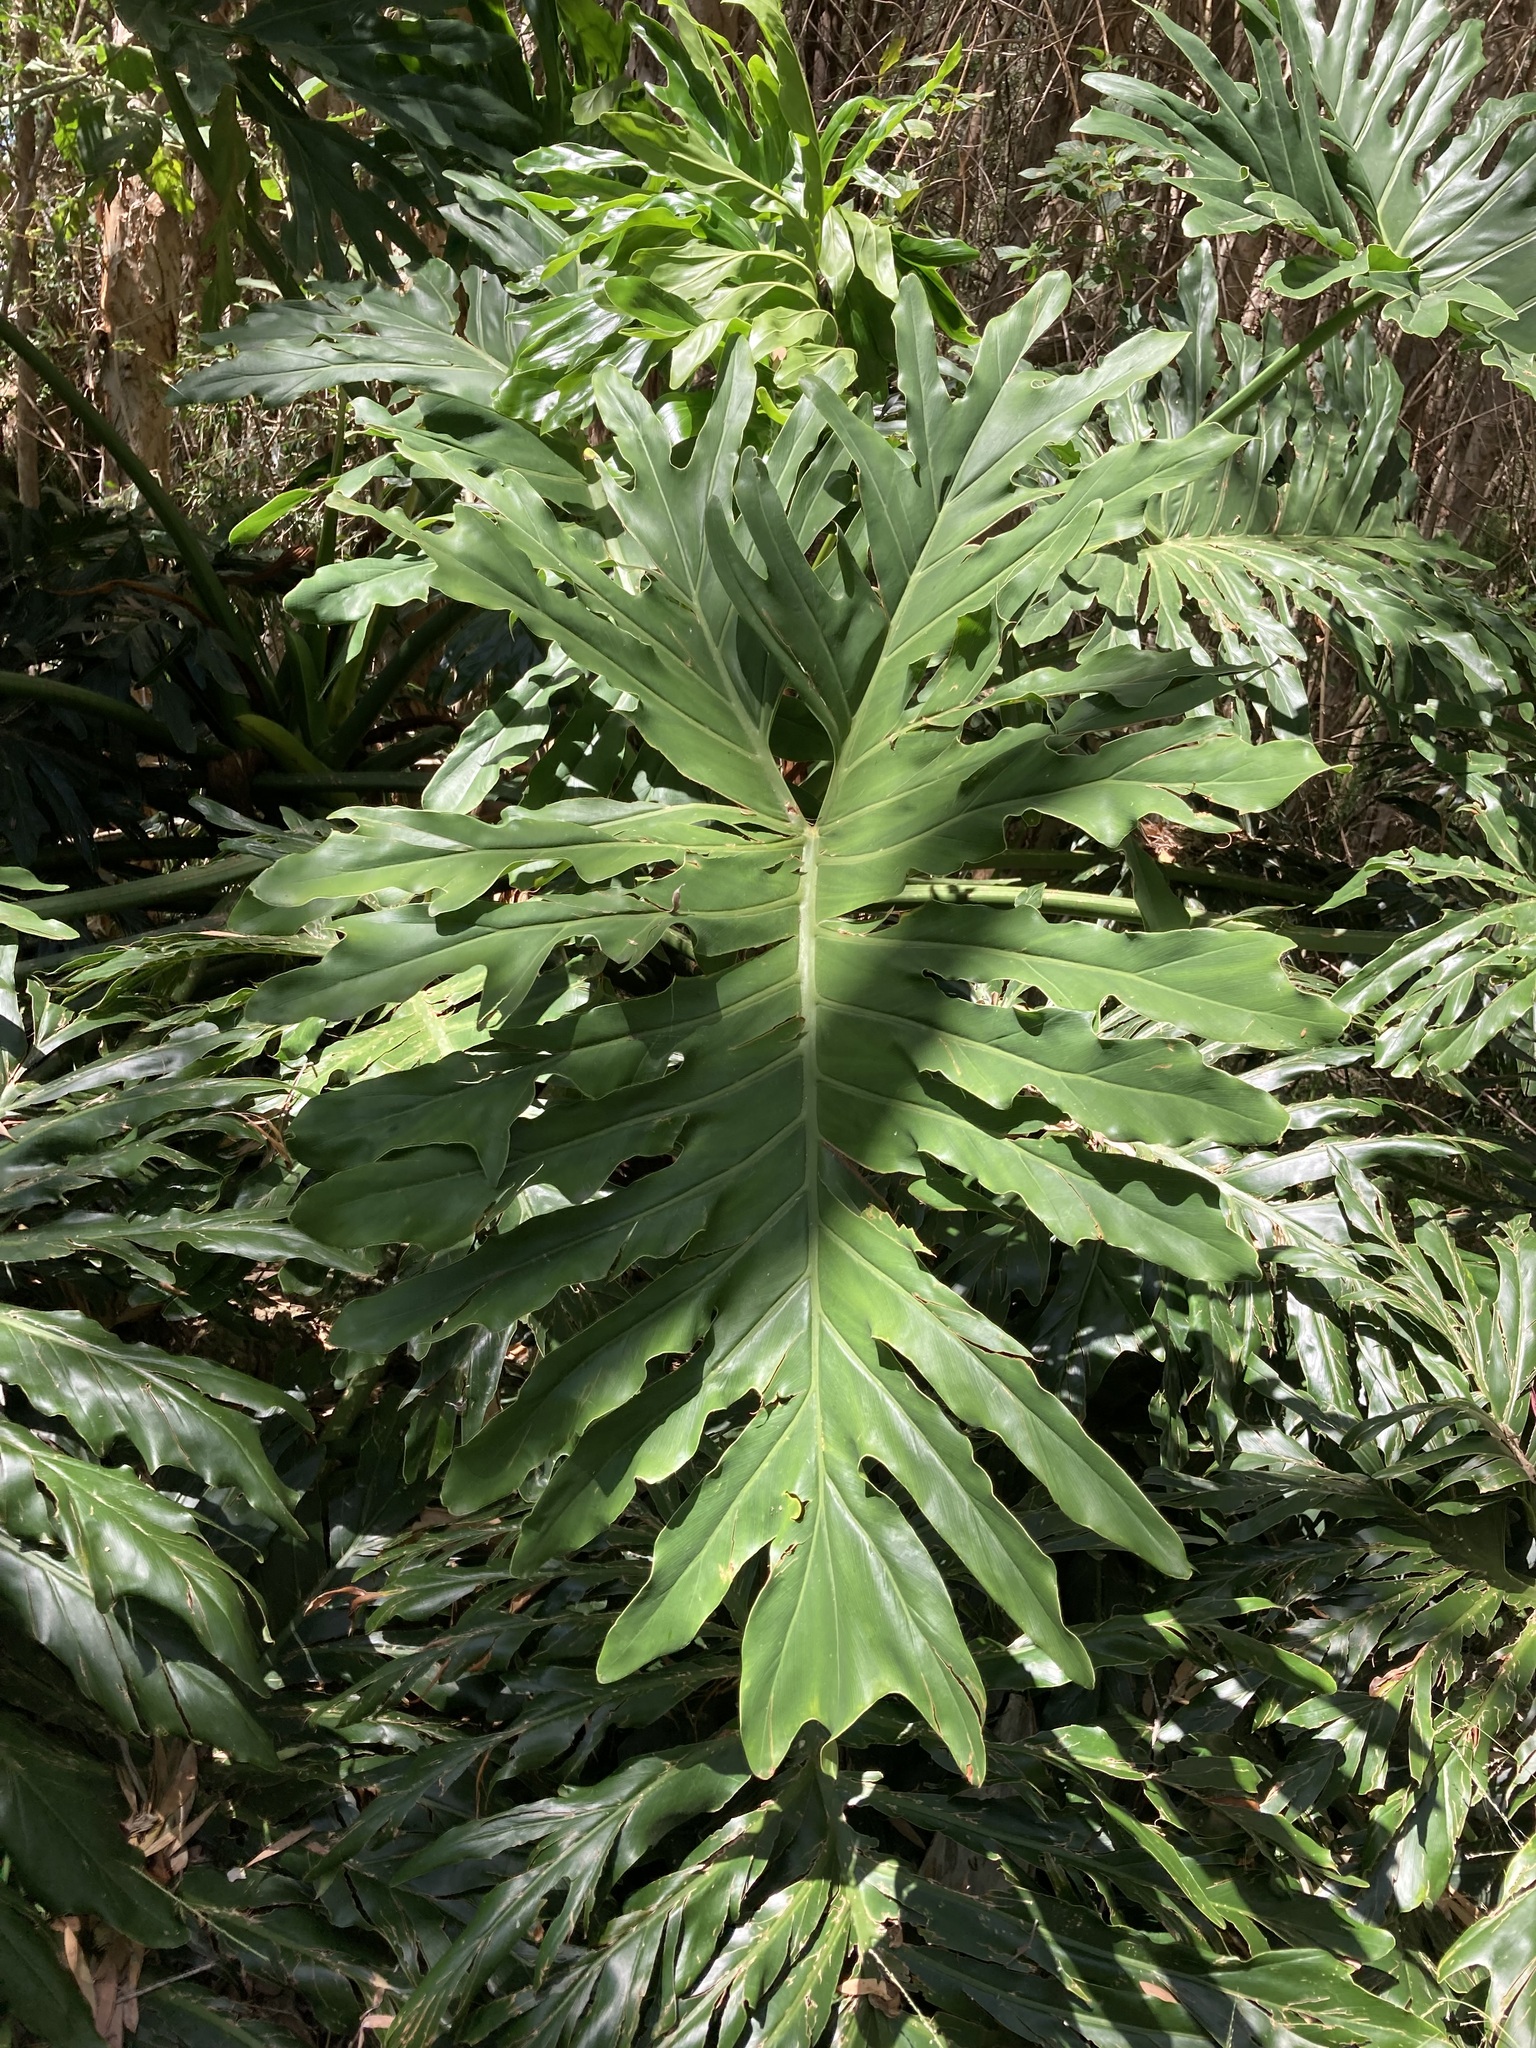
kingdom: Plantae
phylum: Tracheophyta
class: Liliopsida
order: Alismatales
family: Araceae
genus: Thaumatophyllum
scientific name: Thaumatophyllum bipinnatifidum
